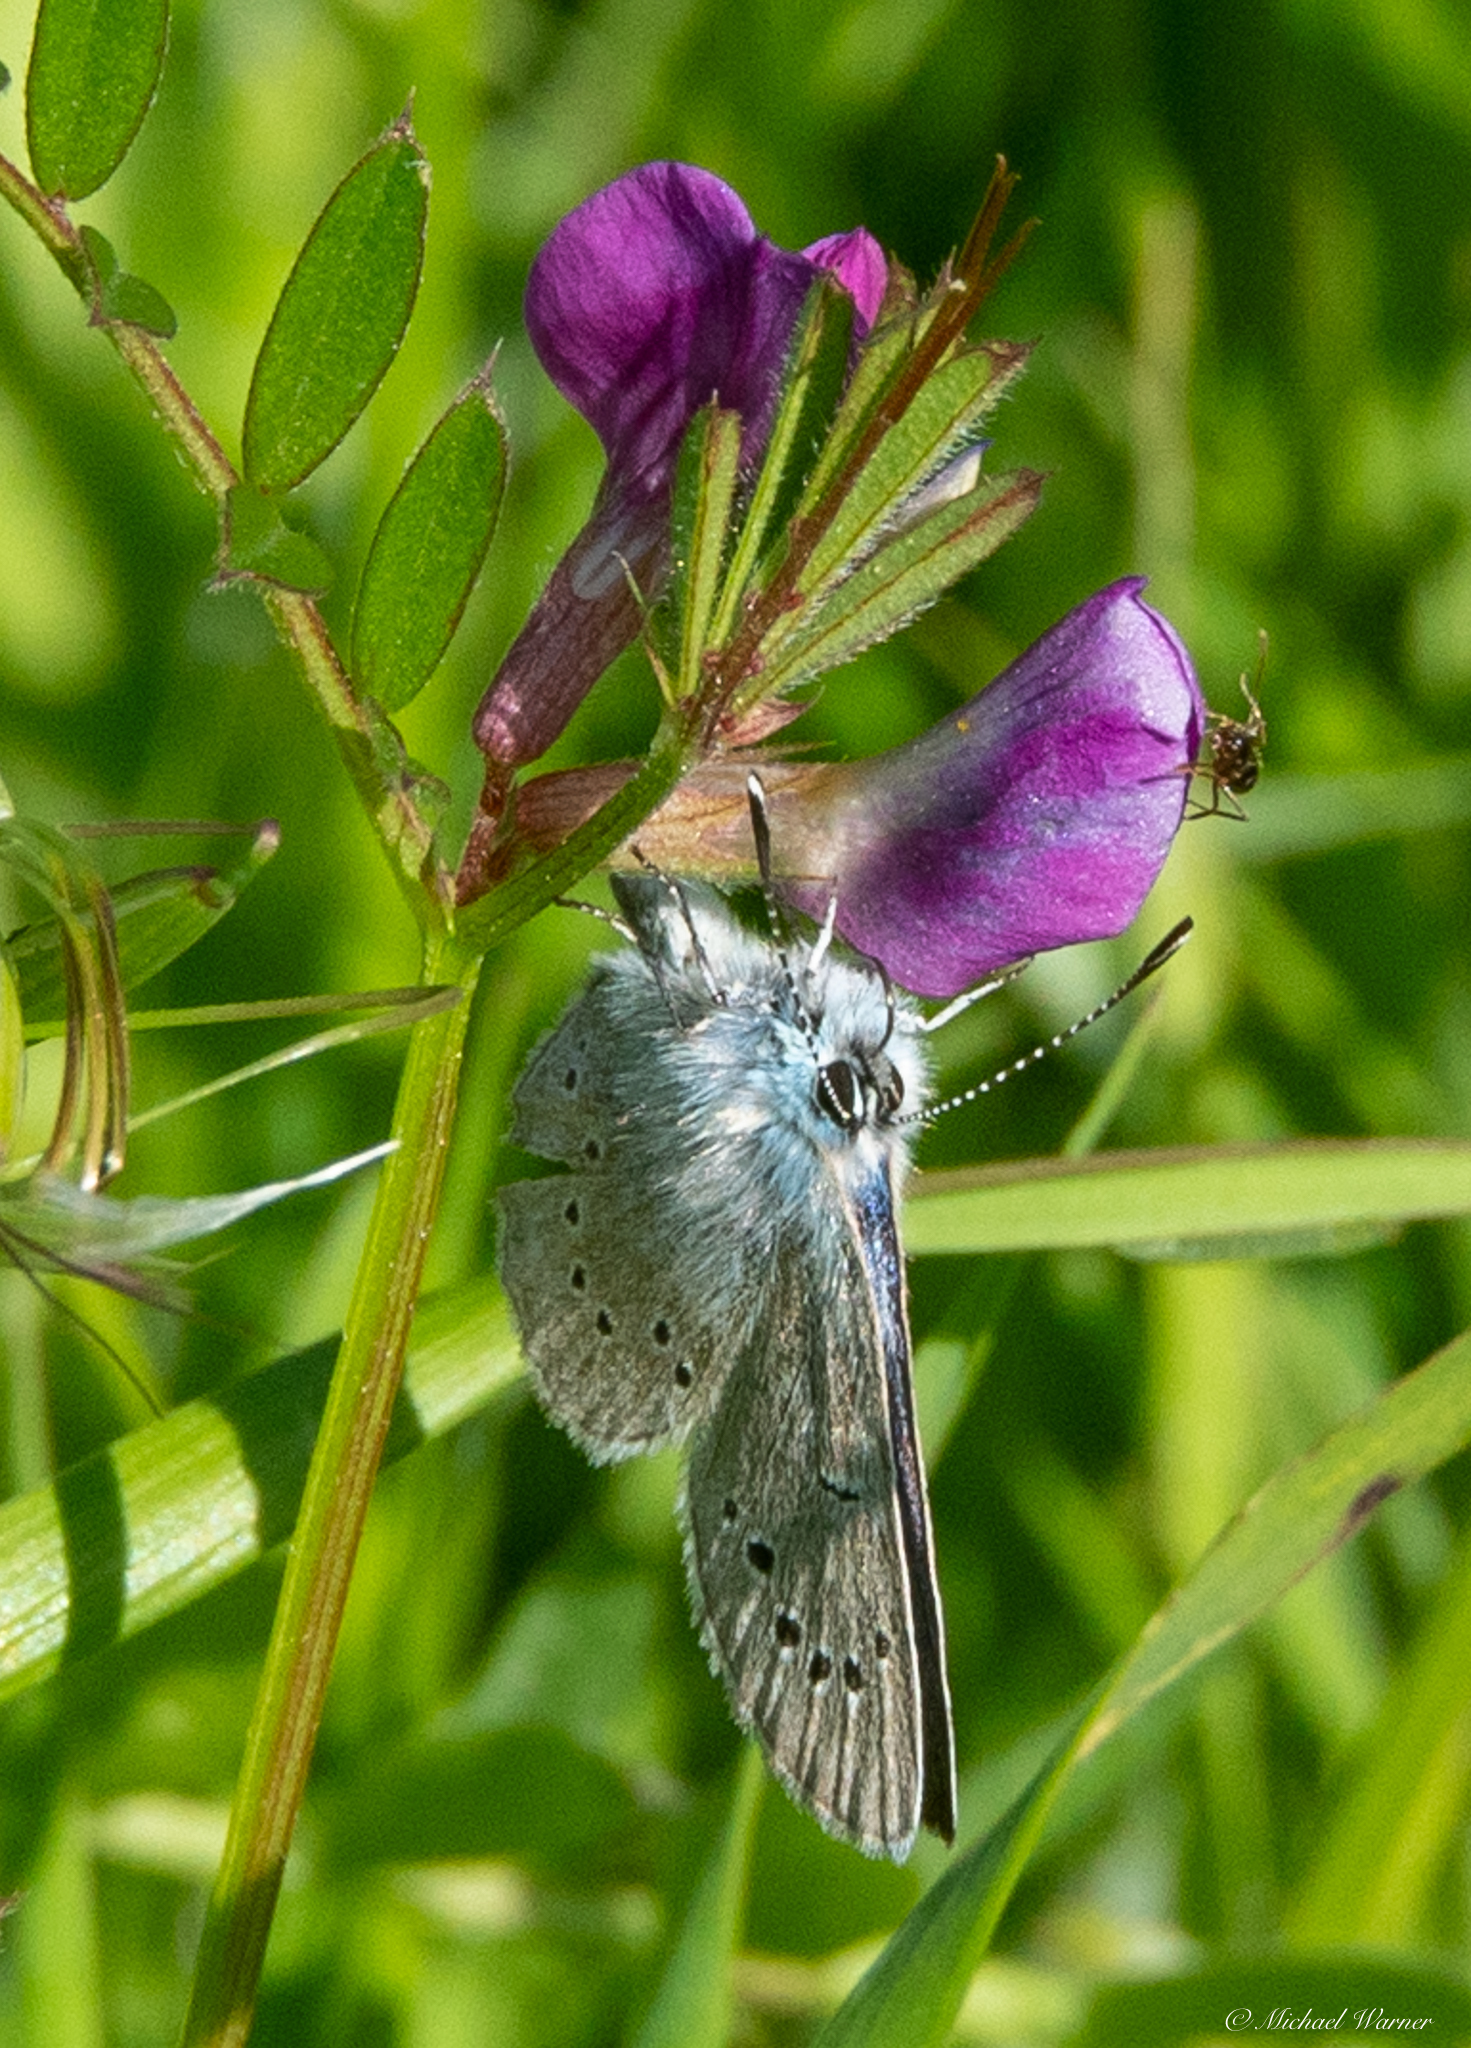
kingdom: Animalia
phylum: Arthropoda
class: Insecta
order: Lepidoptera
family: Lycaenidae
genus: Glaucopsyche
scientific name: Glaucopsyche lygdamus
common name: Silvery blue
